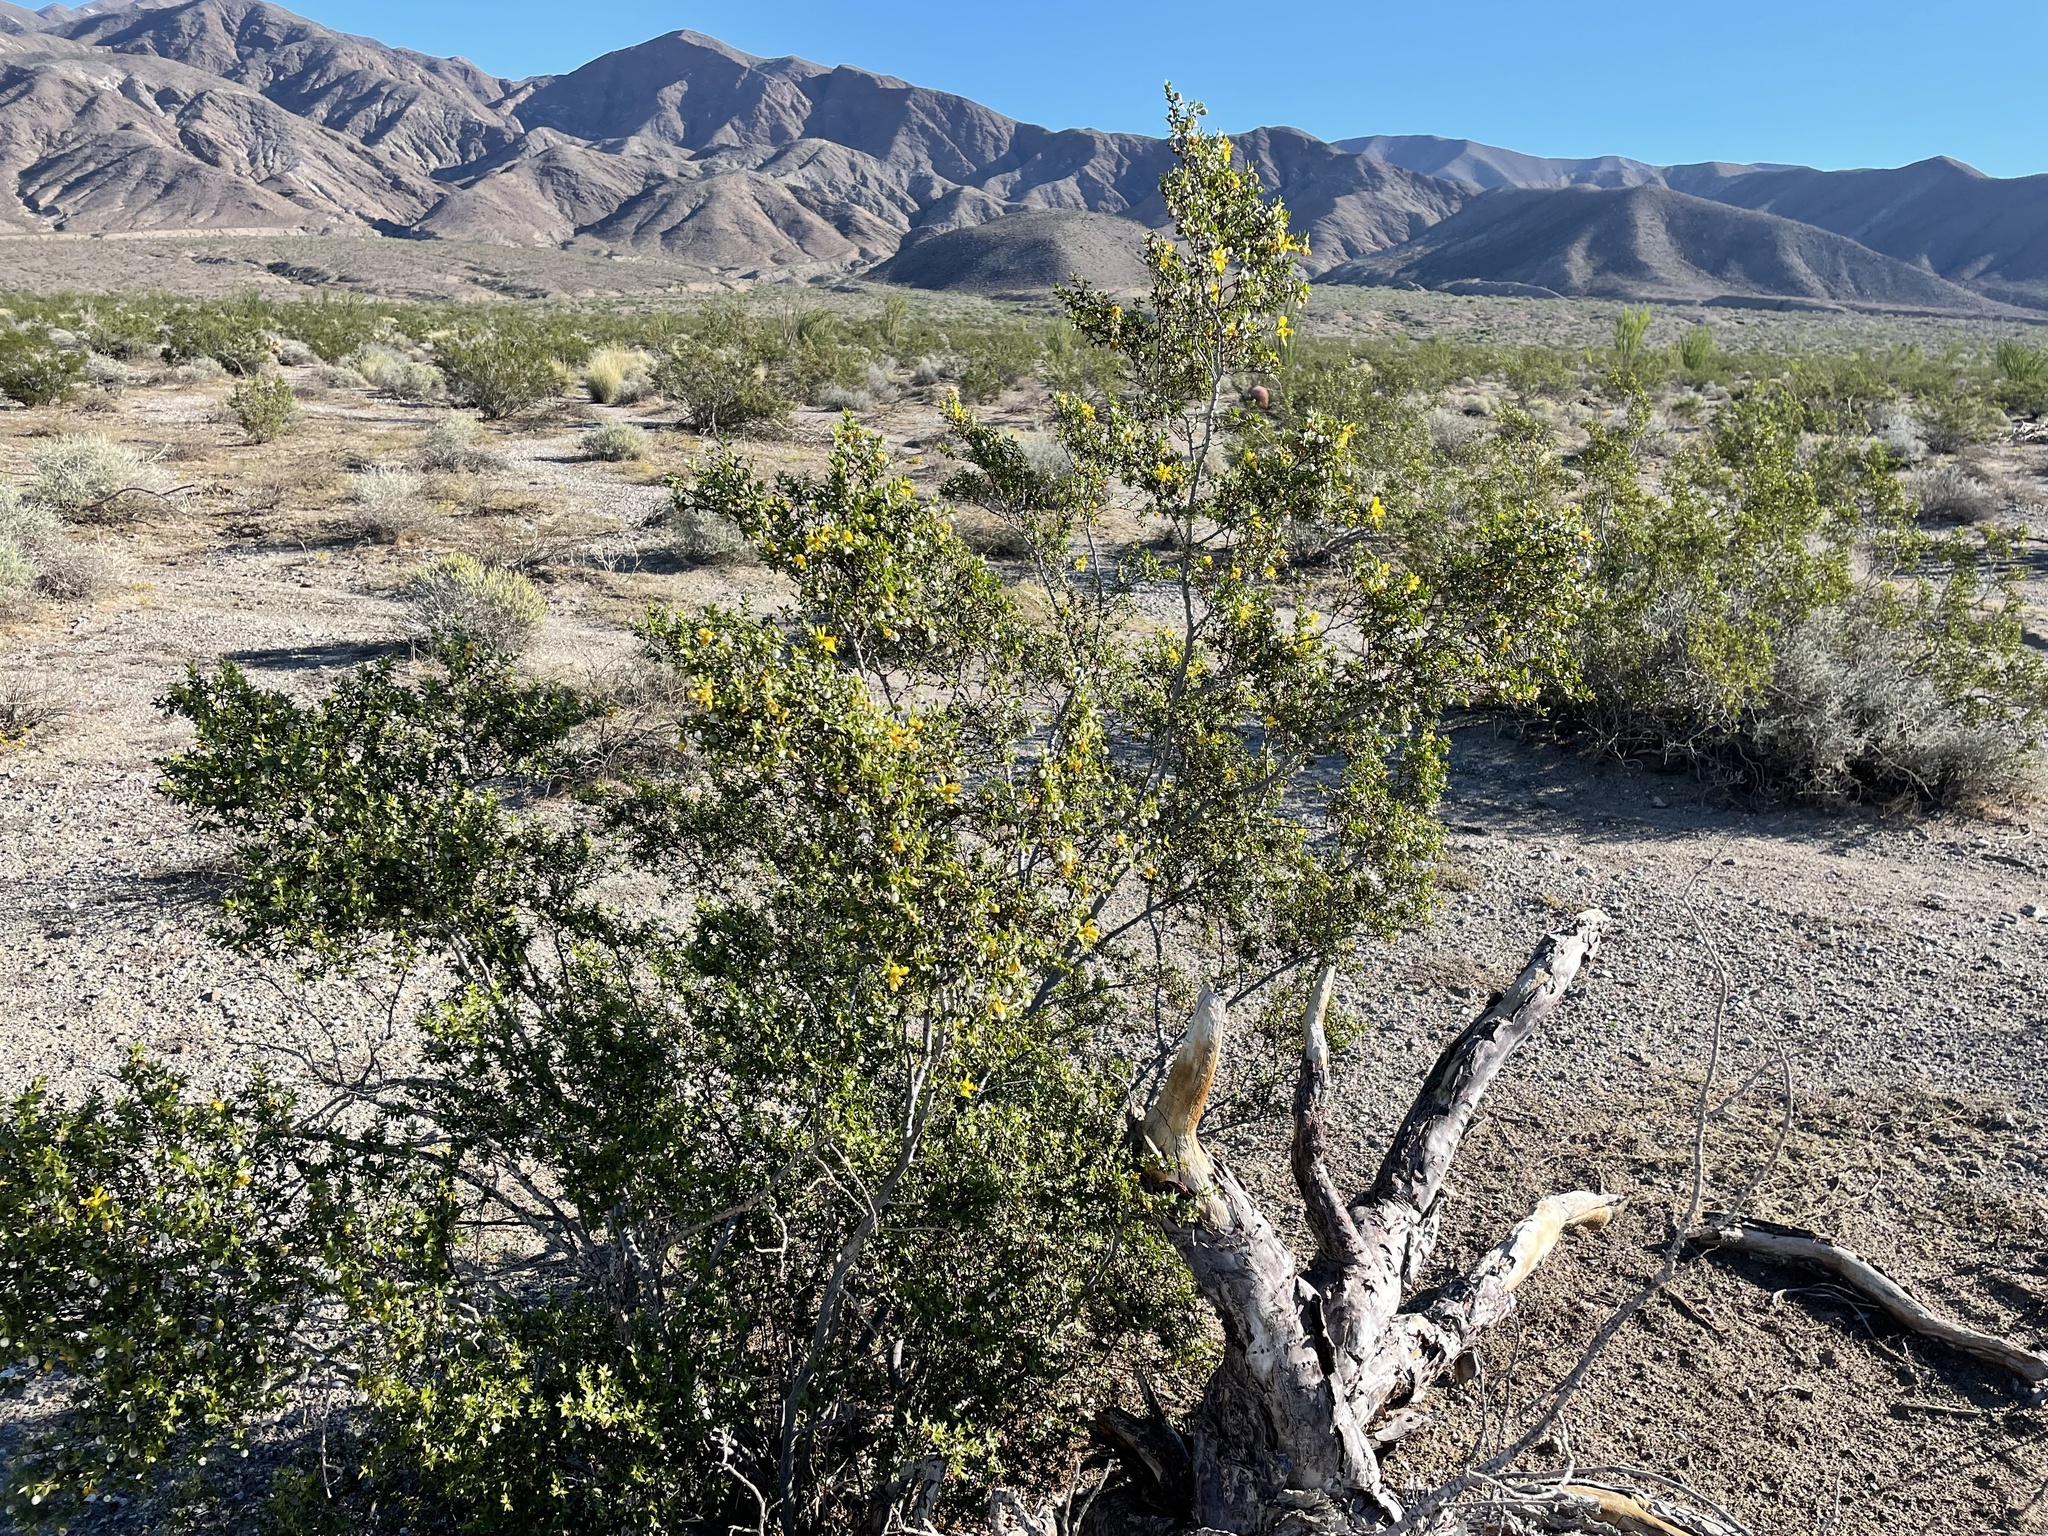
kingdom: Plantae
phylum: Tracheophyta
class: Magnoliopsida
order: Zygophyllales
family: Zygophyllaceae
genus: Larrea
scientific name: Larrea tridentata
